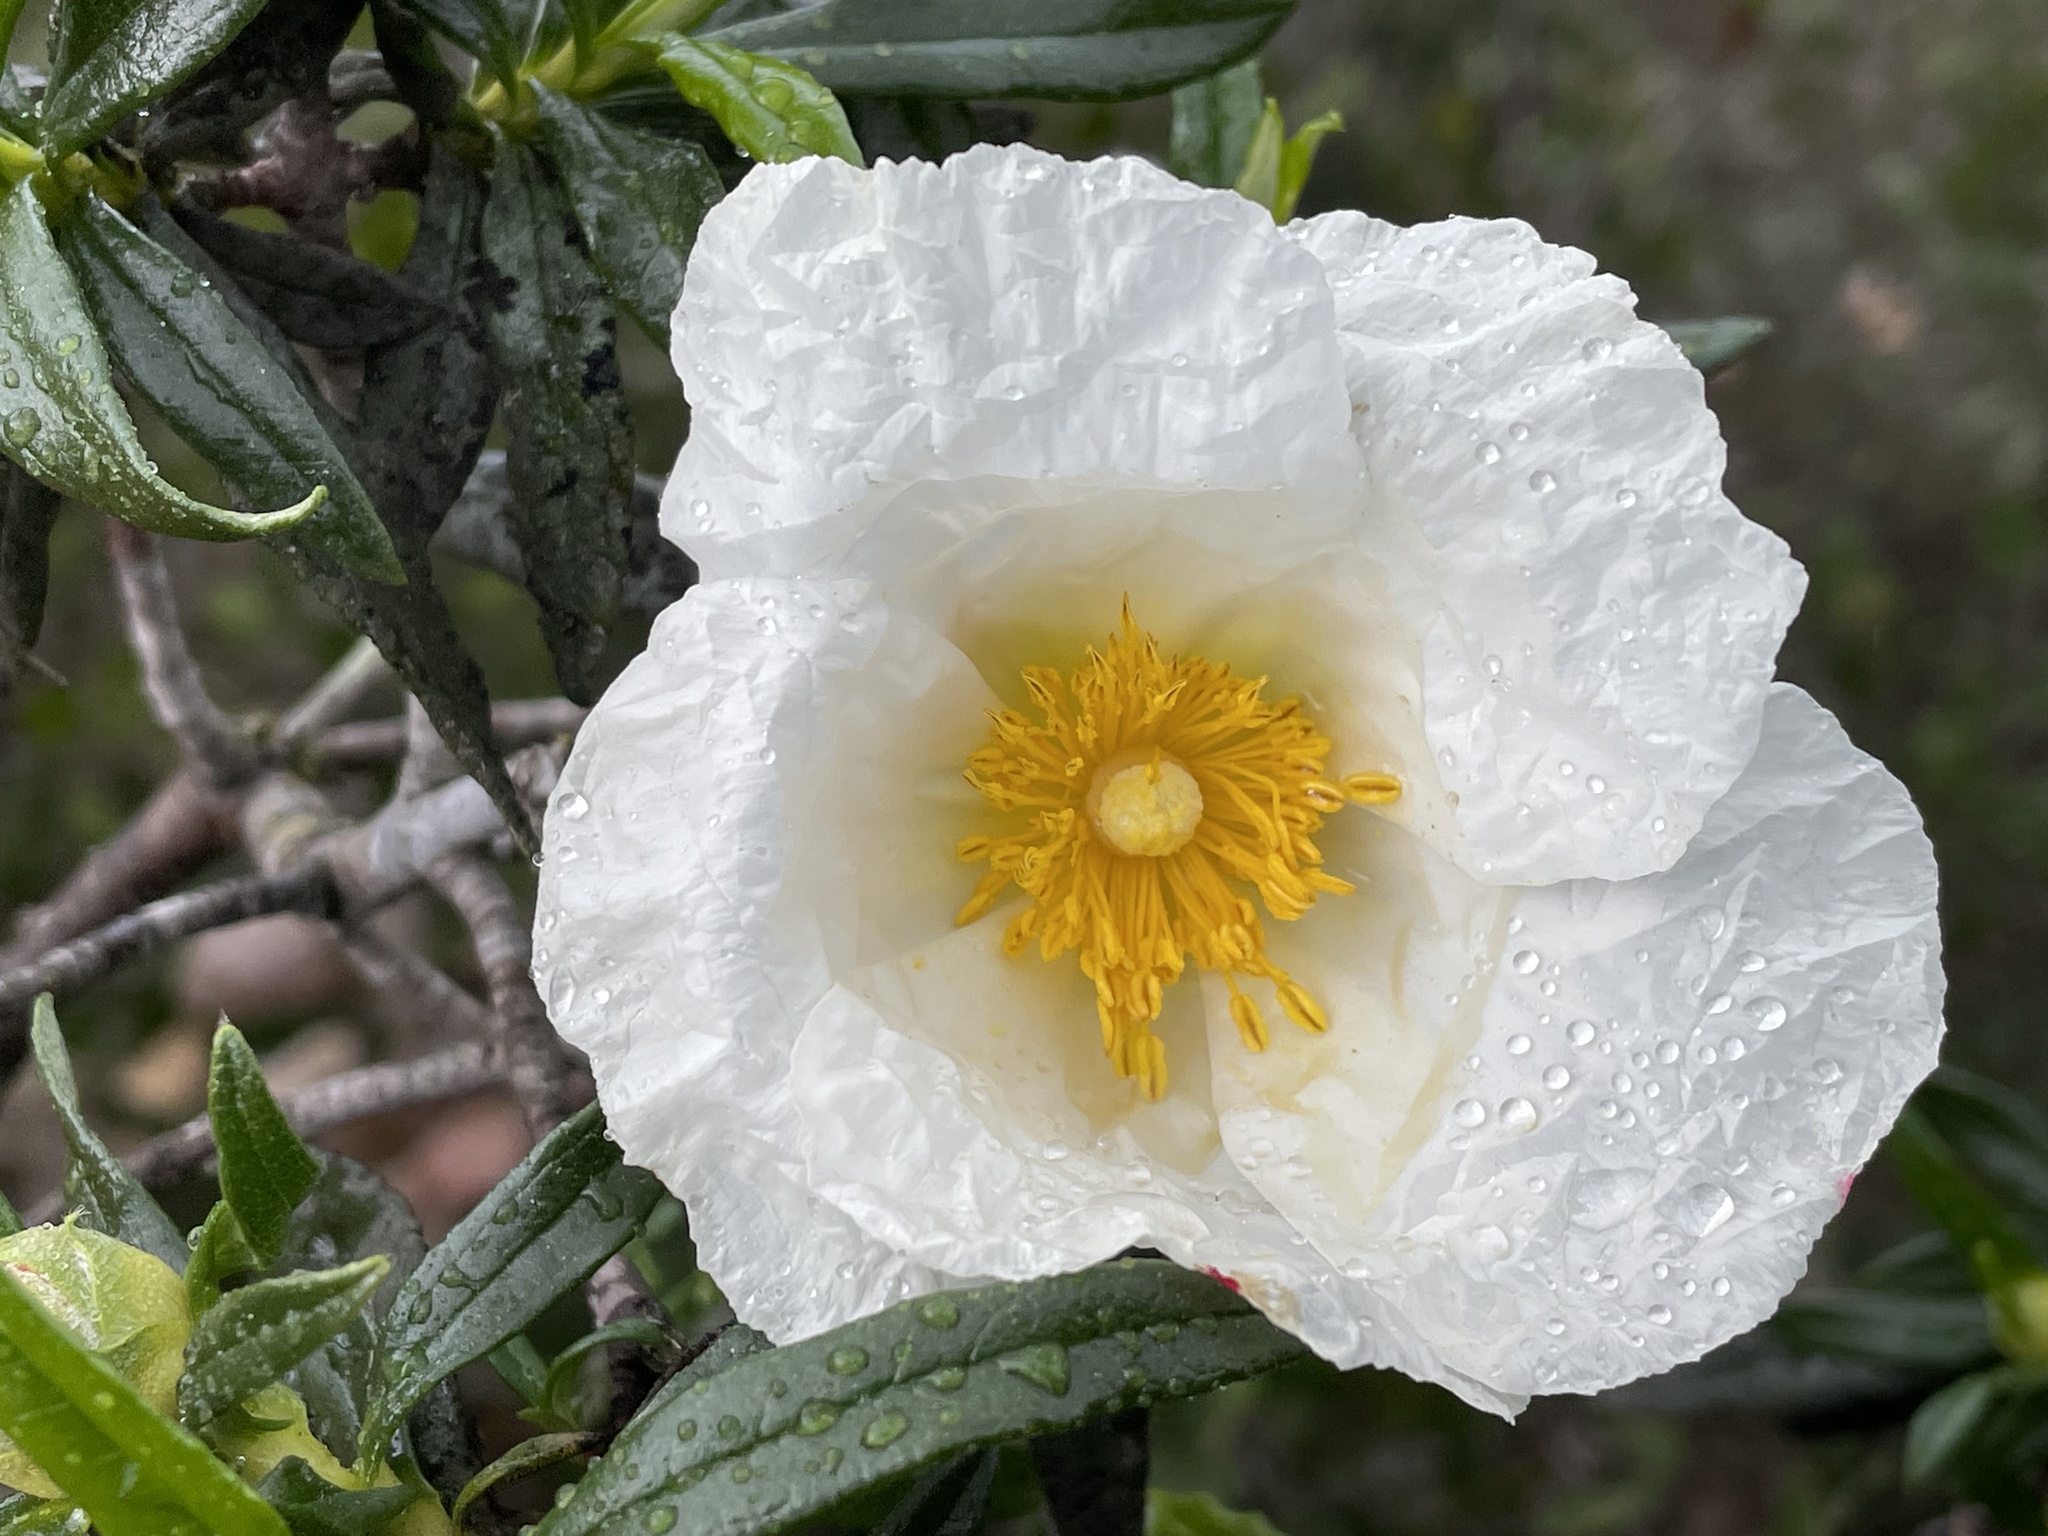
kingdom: Plantae
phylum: Tracheophyta
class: Magnoliopsida
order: Malvales
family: Cistaceae
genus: Cistus
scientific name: Cistus ladanifer
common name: Common gum cistus
